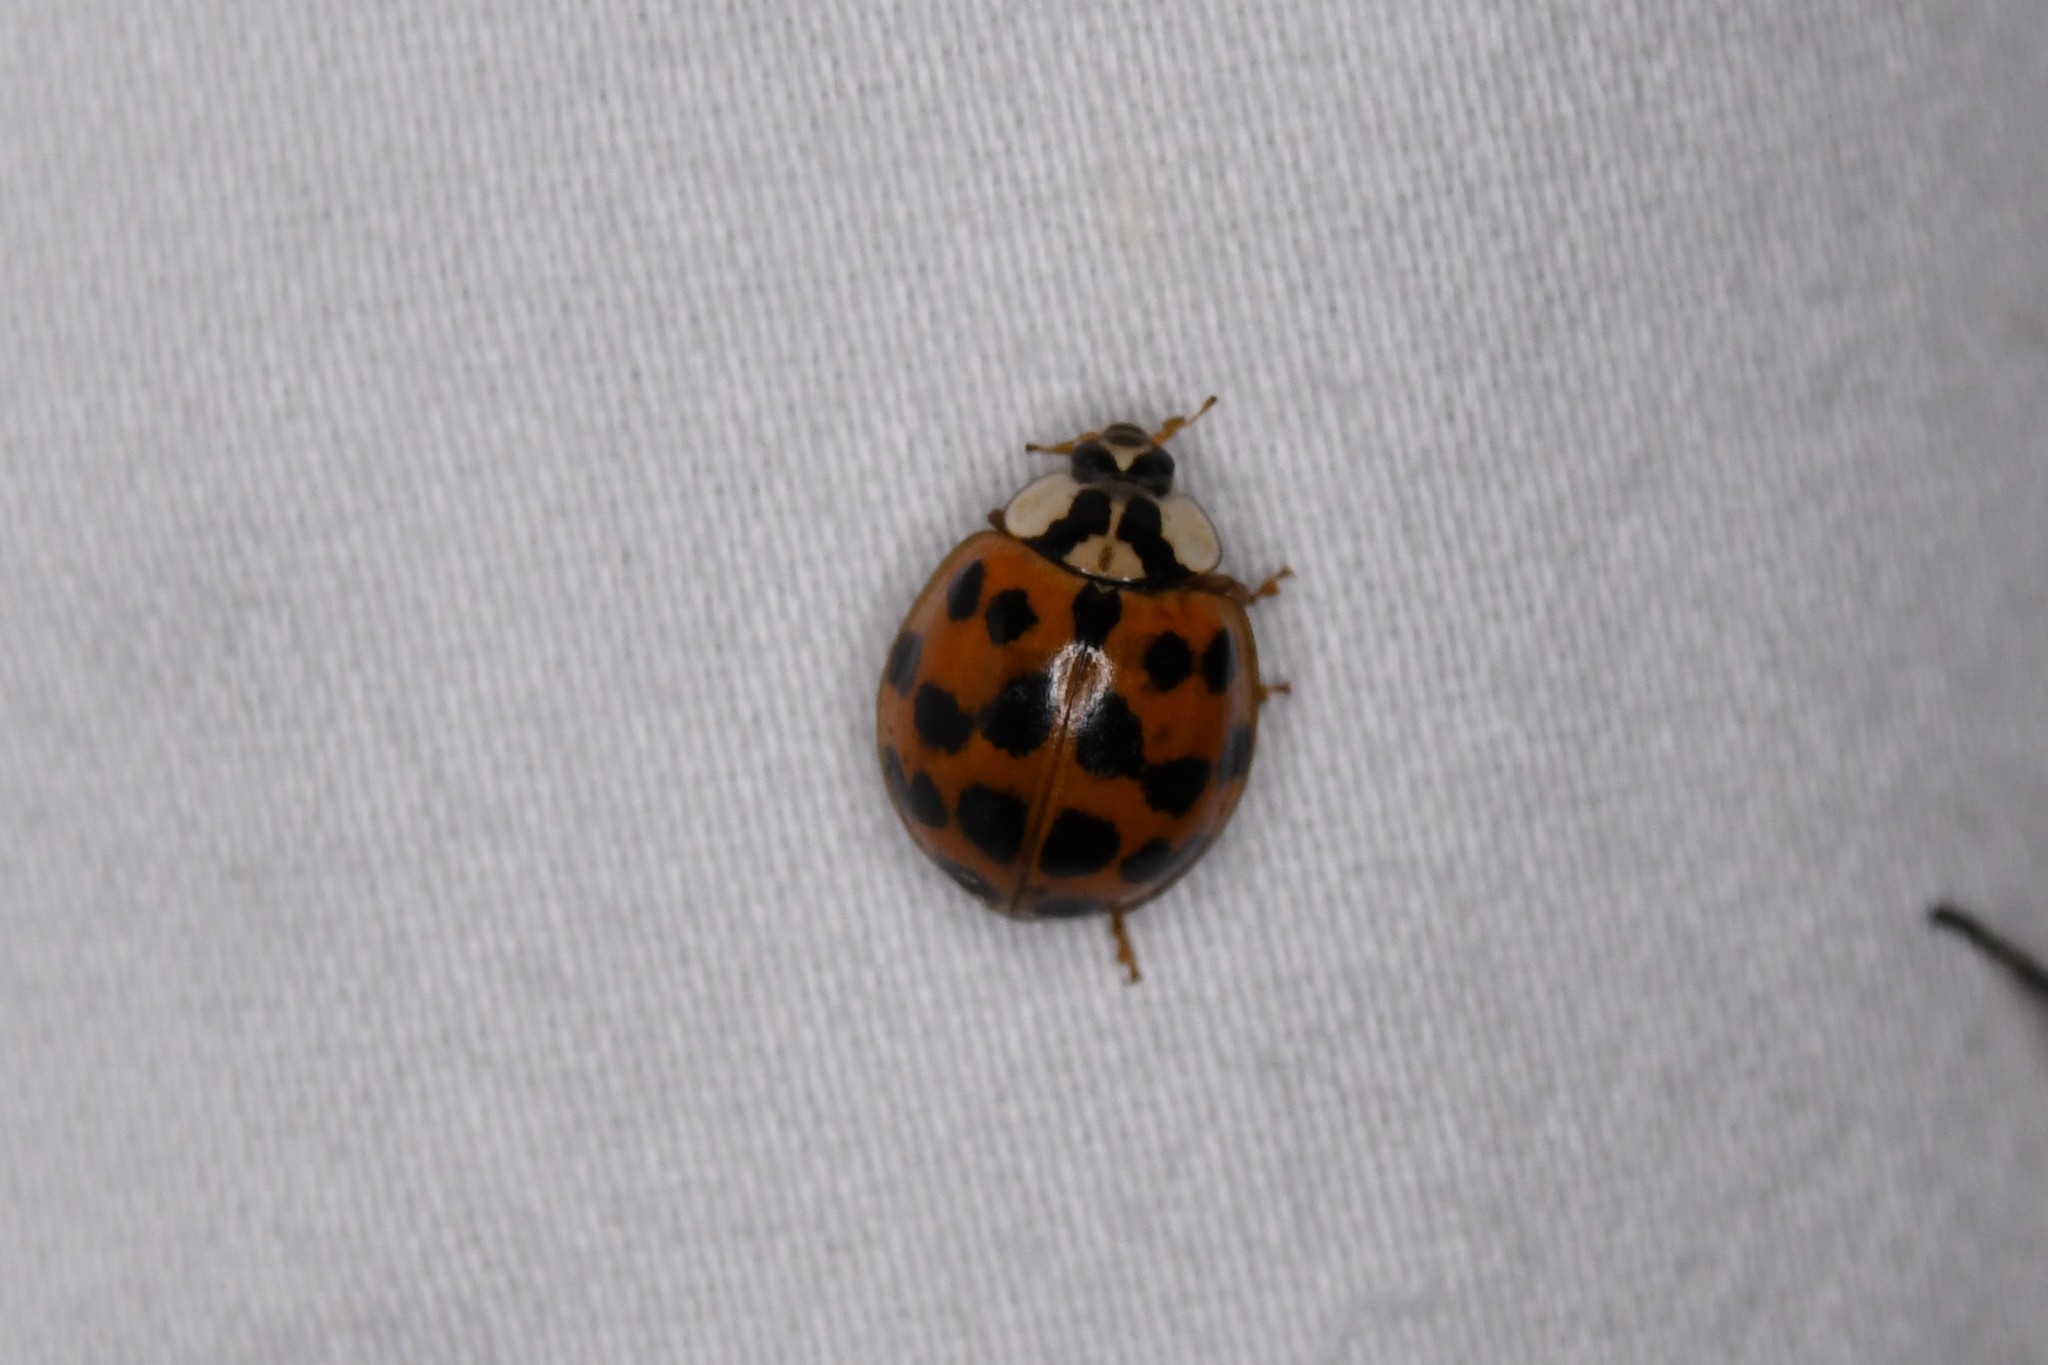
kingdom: Animalia
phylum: Arthropoda
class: Insecta
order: Coleoptera
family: Coccinellidae
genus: Harmonia
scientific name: Harmonia axyridis
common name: Harlequin ladybird
